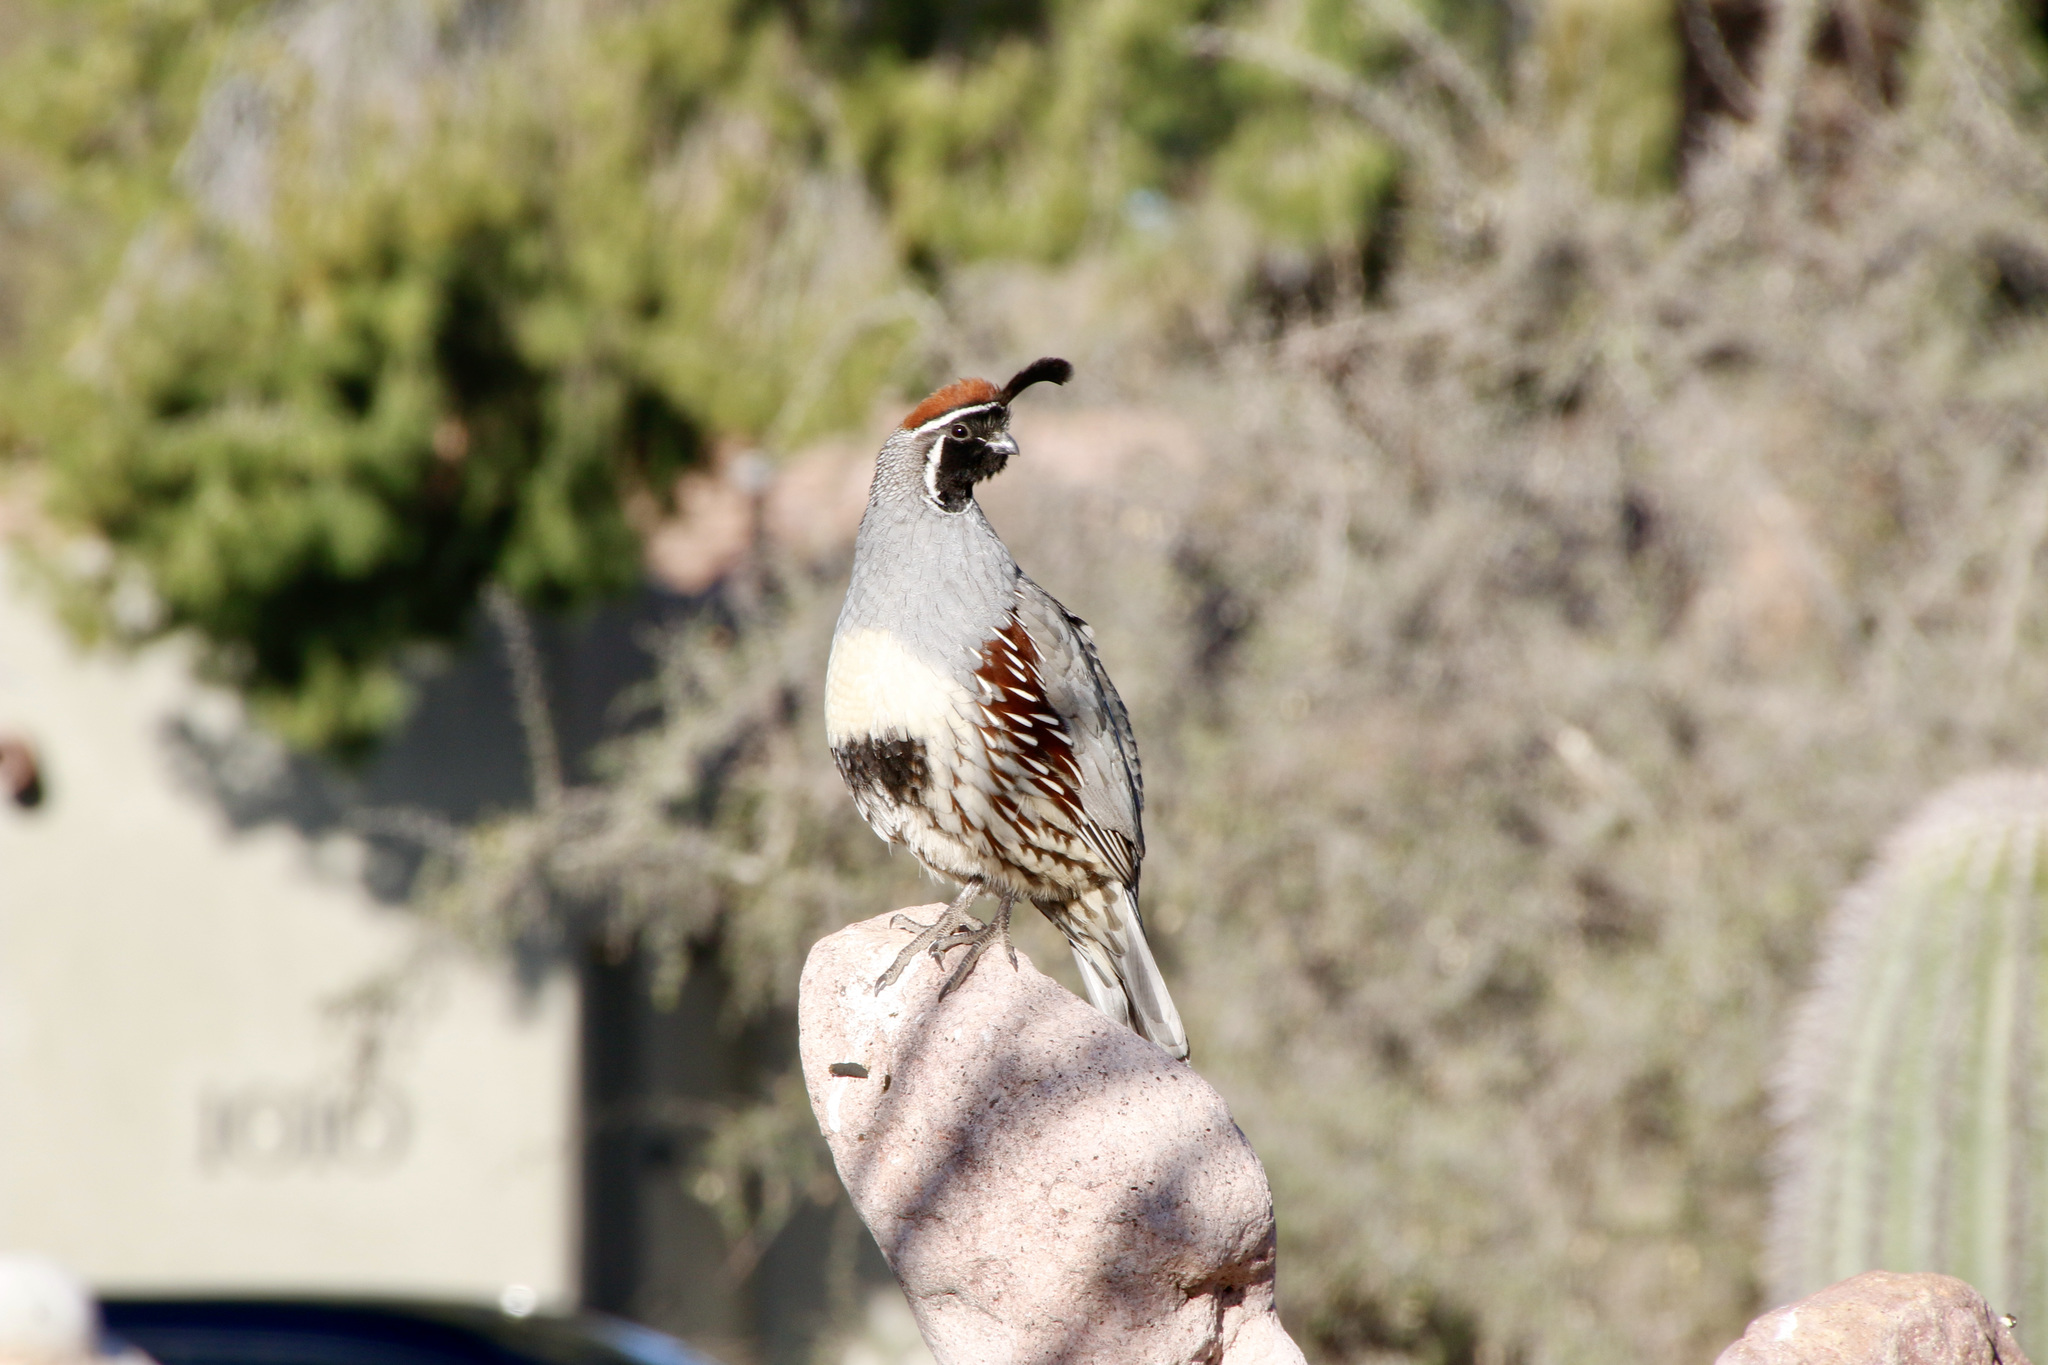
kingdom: Animalia
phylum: Chordata
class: Aves
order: Galliformes
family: Odontophoridae
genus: Callipepla
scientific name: Callipepla gambelii
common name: Gambel's quail
